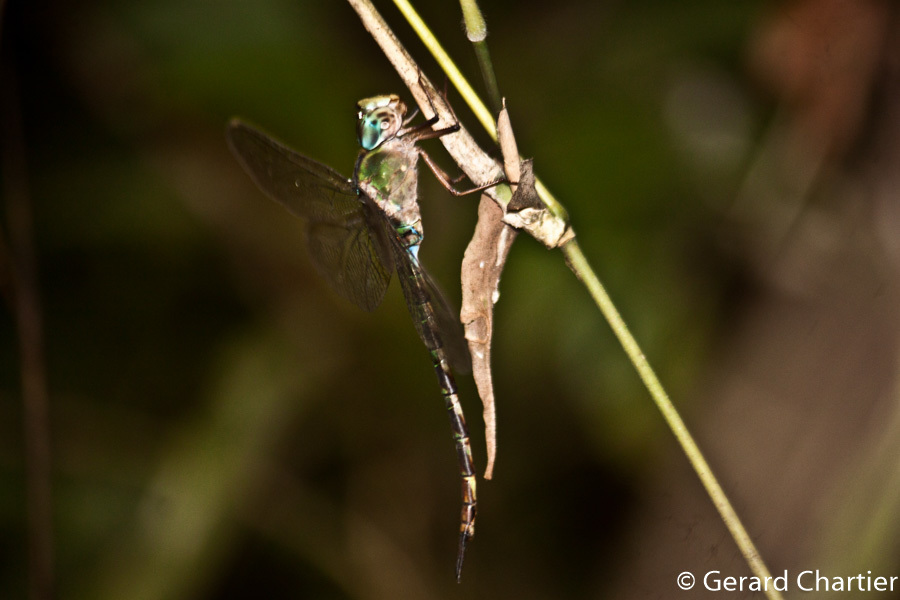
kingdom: Animalia
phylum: Arthropoda
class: Insecta
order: Odonata
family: Aeshnidae
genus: Gynacantha
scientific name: Gynacantha subinterrupta
